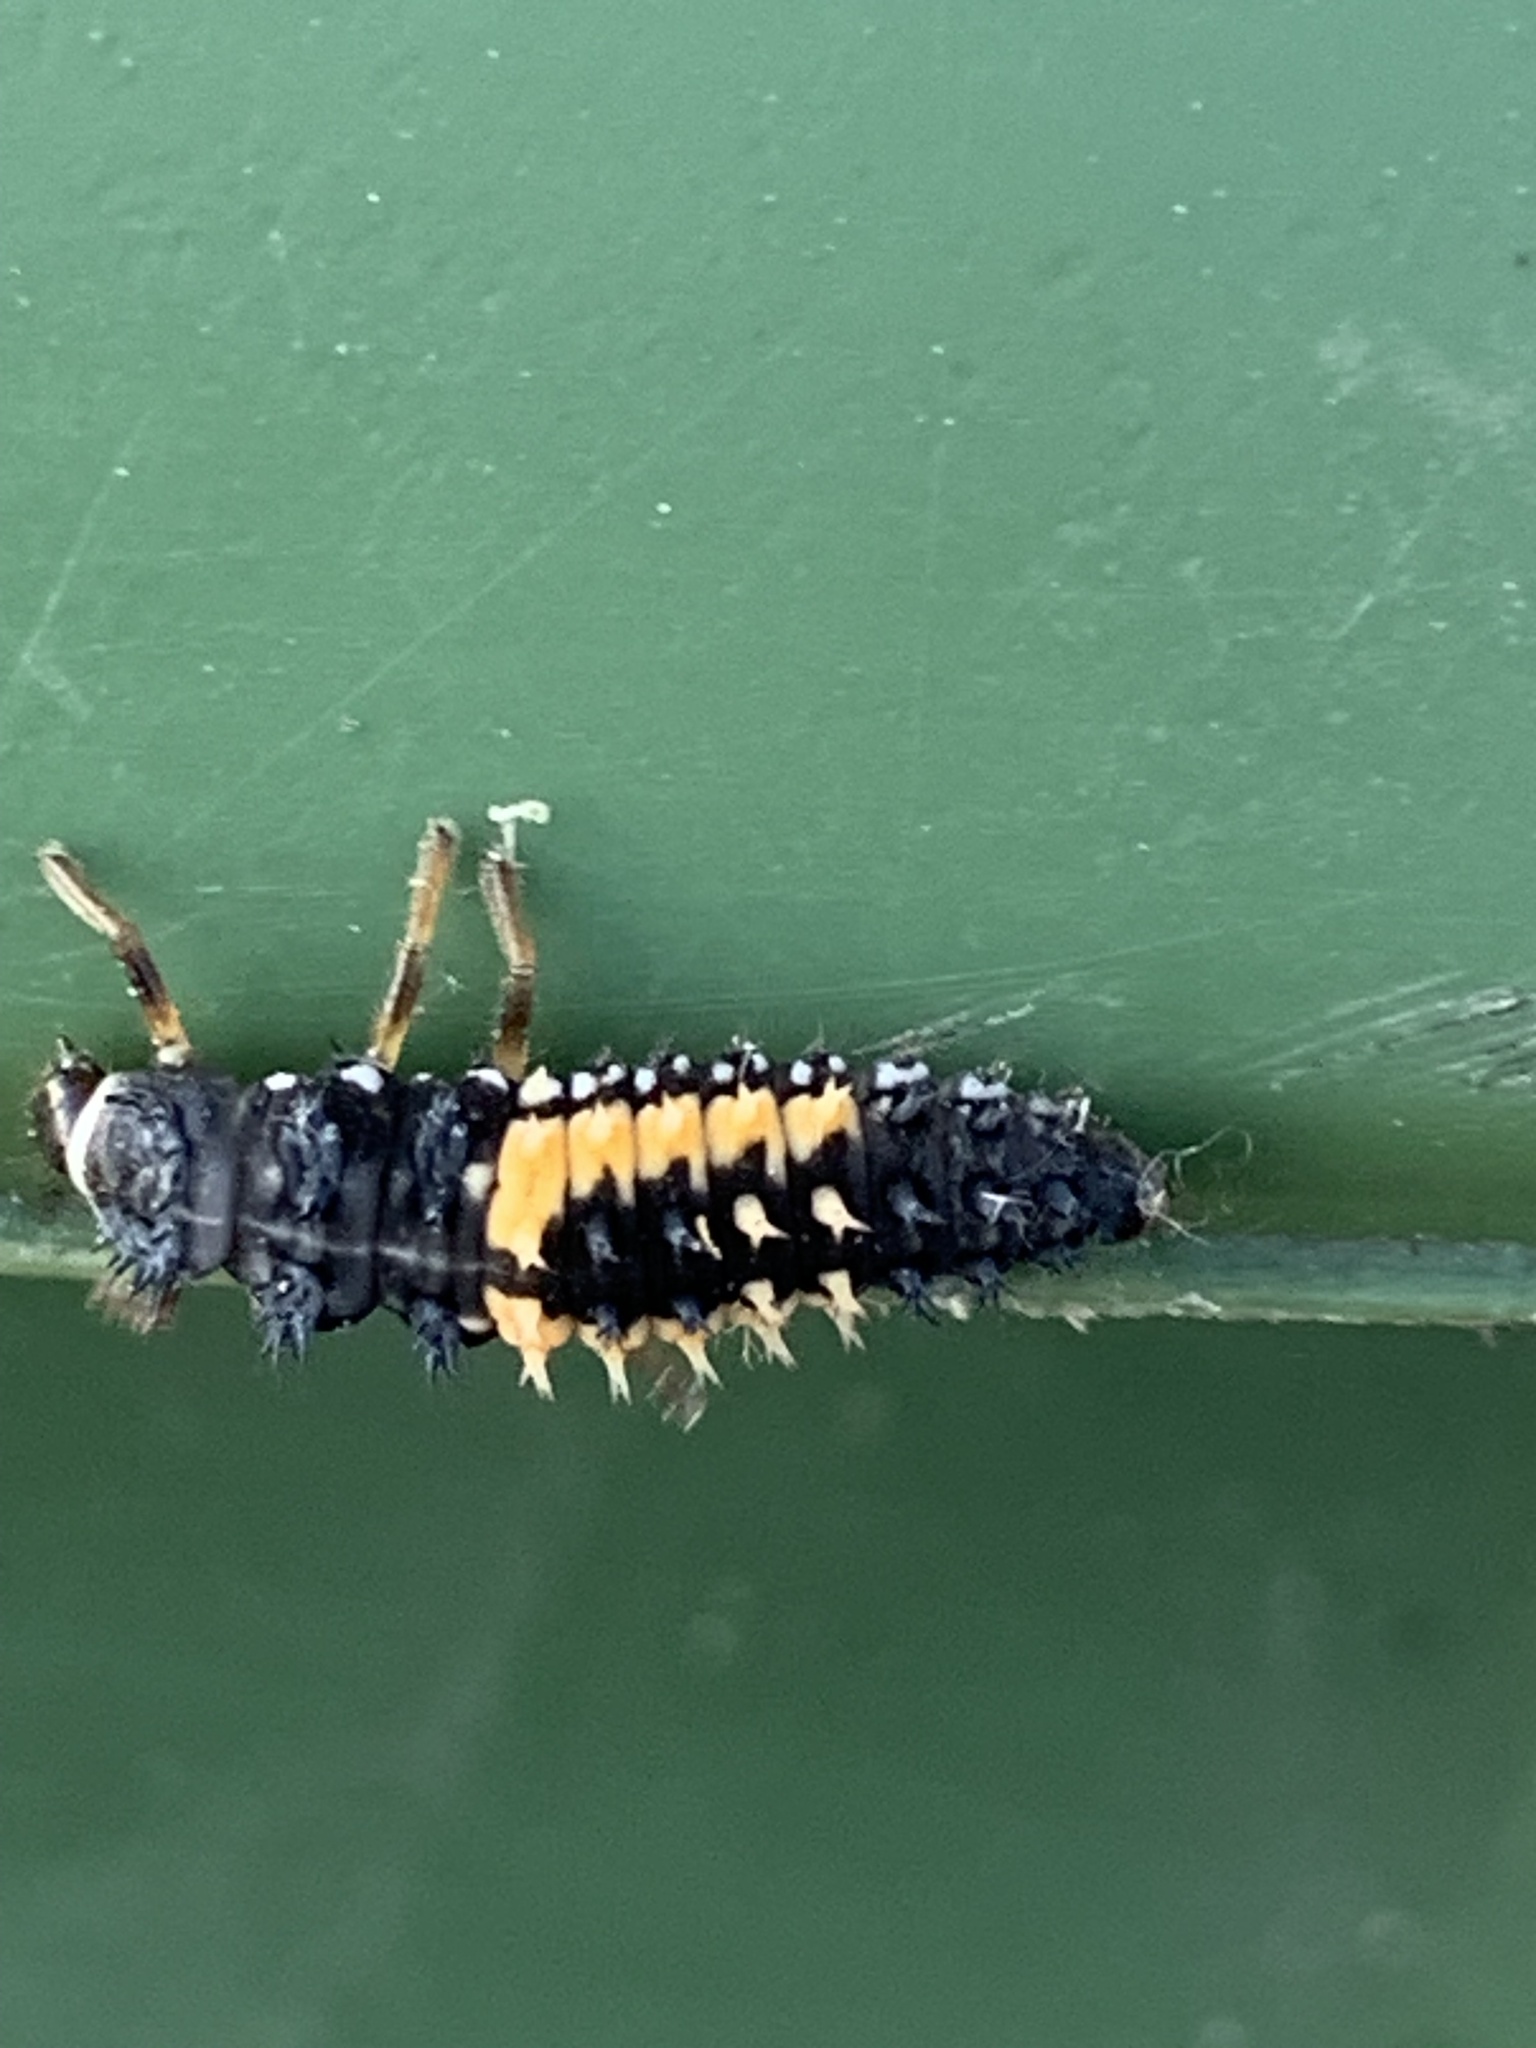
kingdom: Animalia
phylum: Arthropoda
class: Insecta
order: Coleoptera
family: Coccinellidae
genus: Harmonia
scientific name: Harmonia axyridis
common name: Harlequin ladybird
